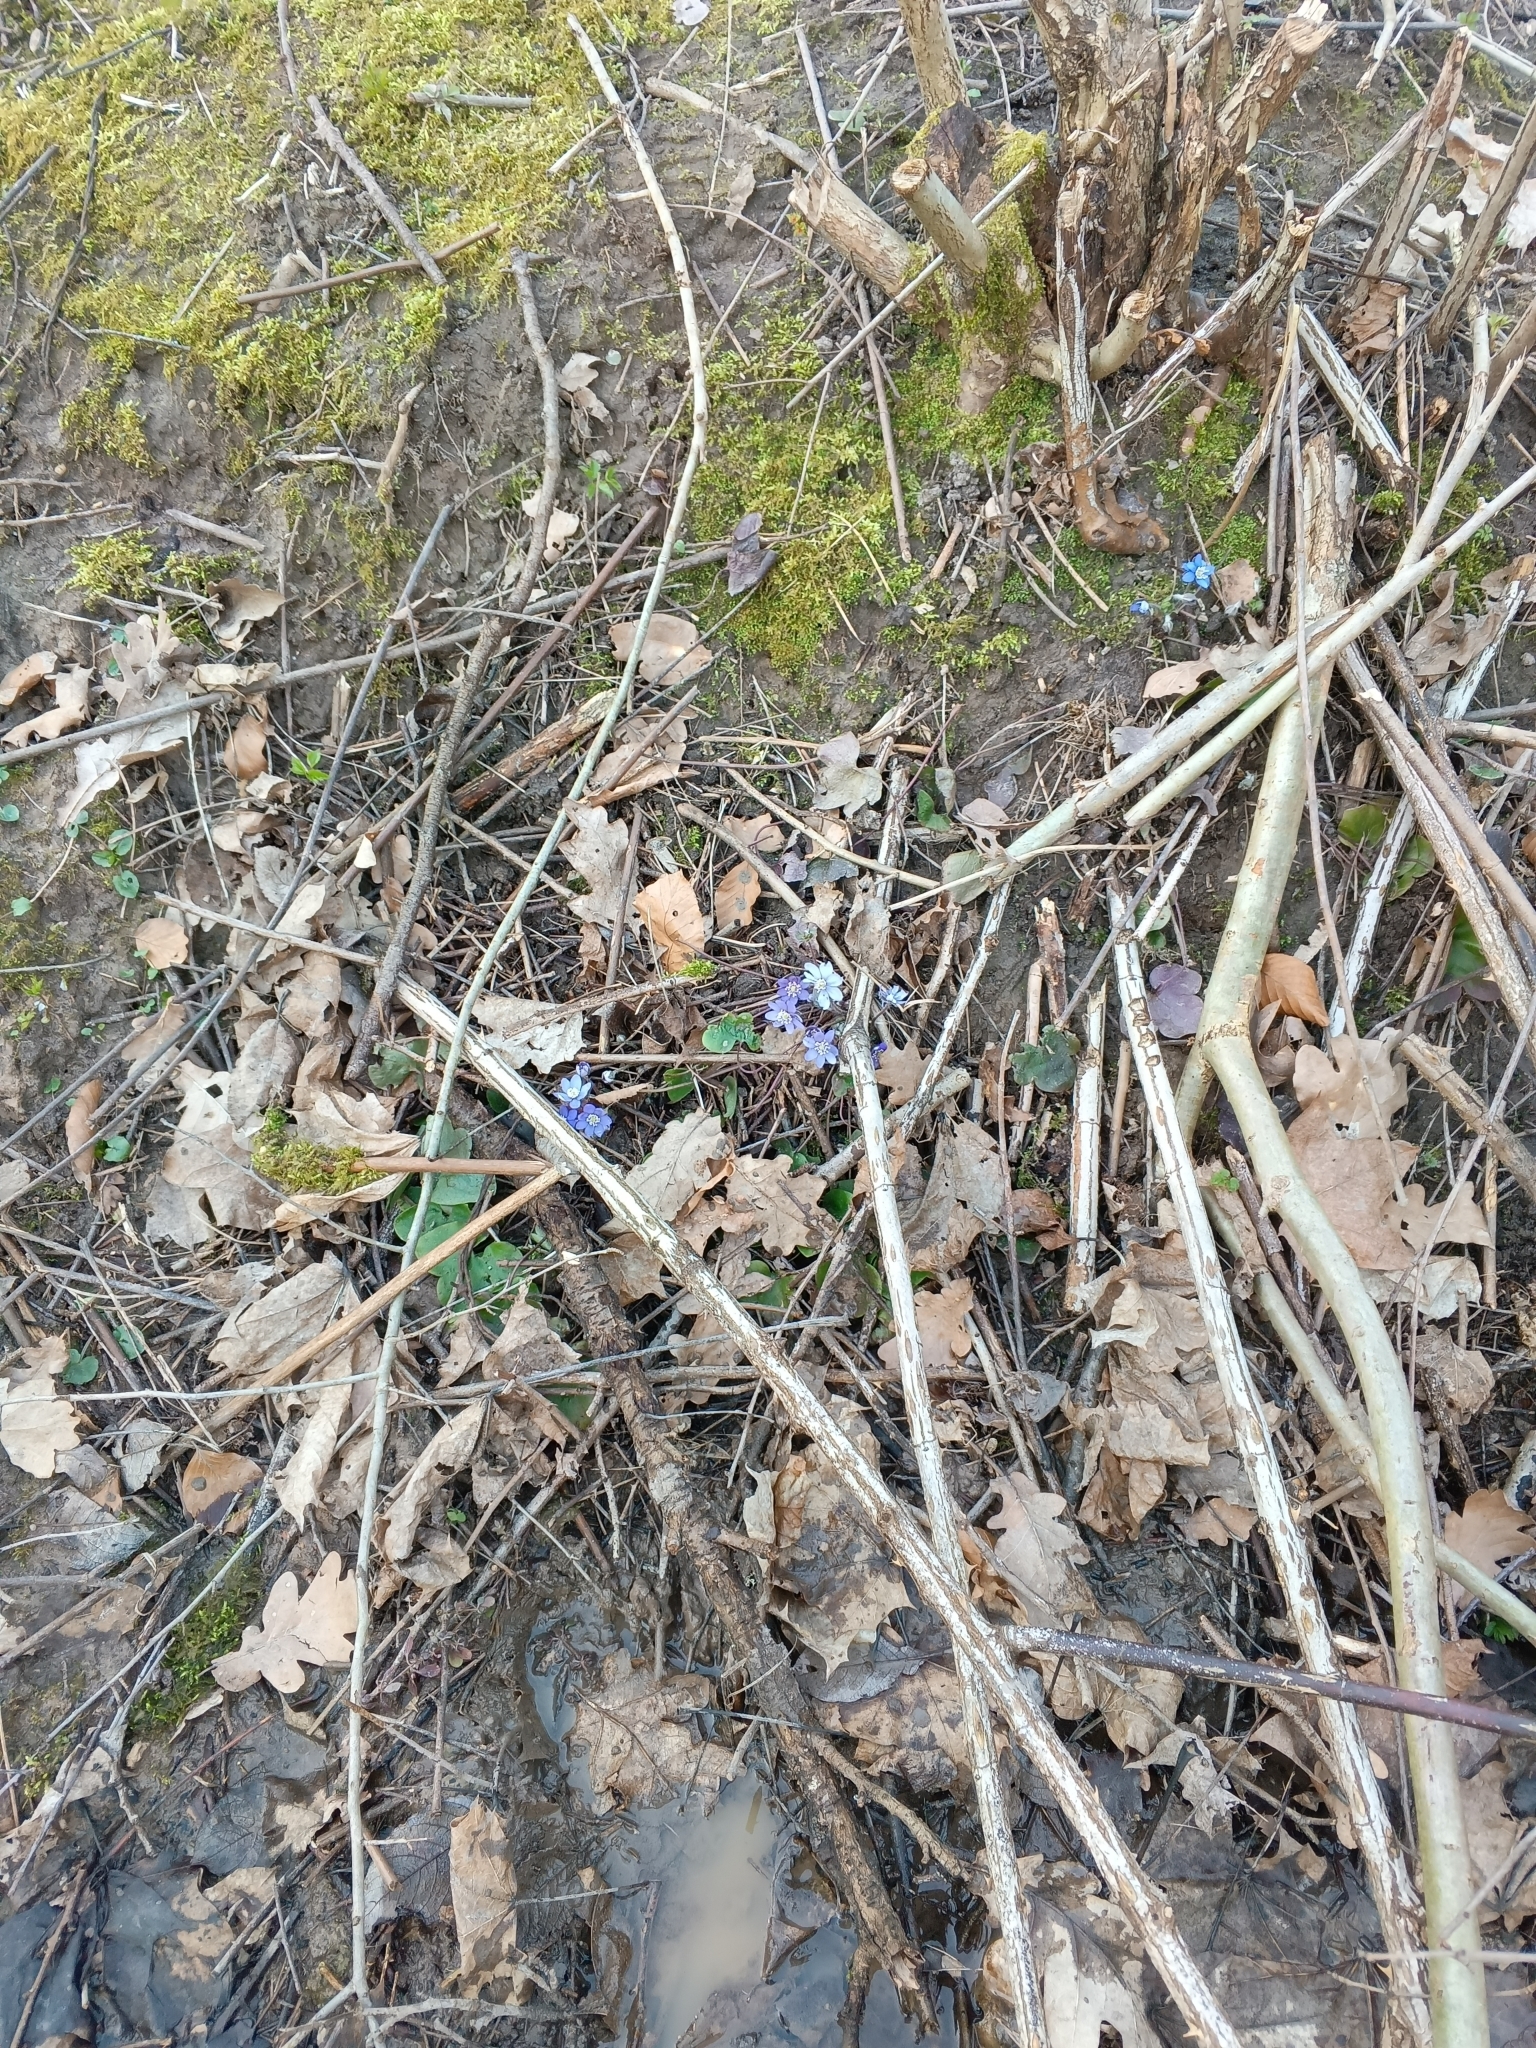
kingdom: Plantae
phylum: Tracheophyta
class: Magnoliopsida
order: Ranunculales
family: Ranunculaceae
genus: Hepatica
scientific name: Hepatica nobilis
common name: Liverleaf
